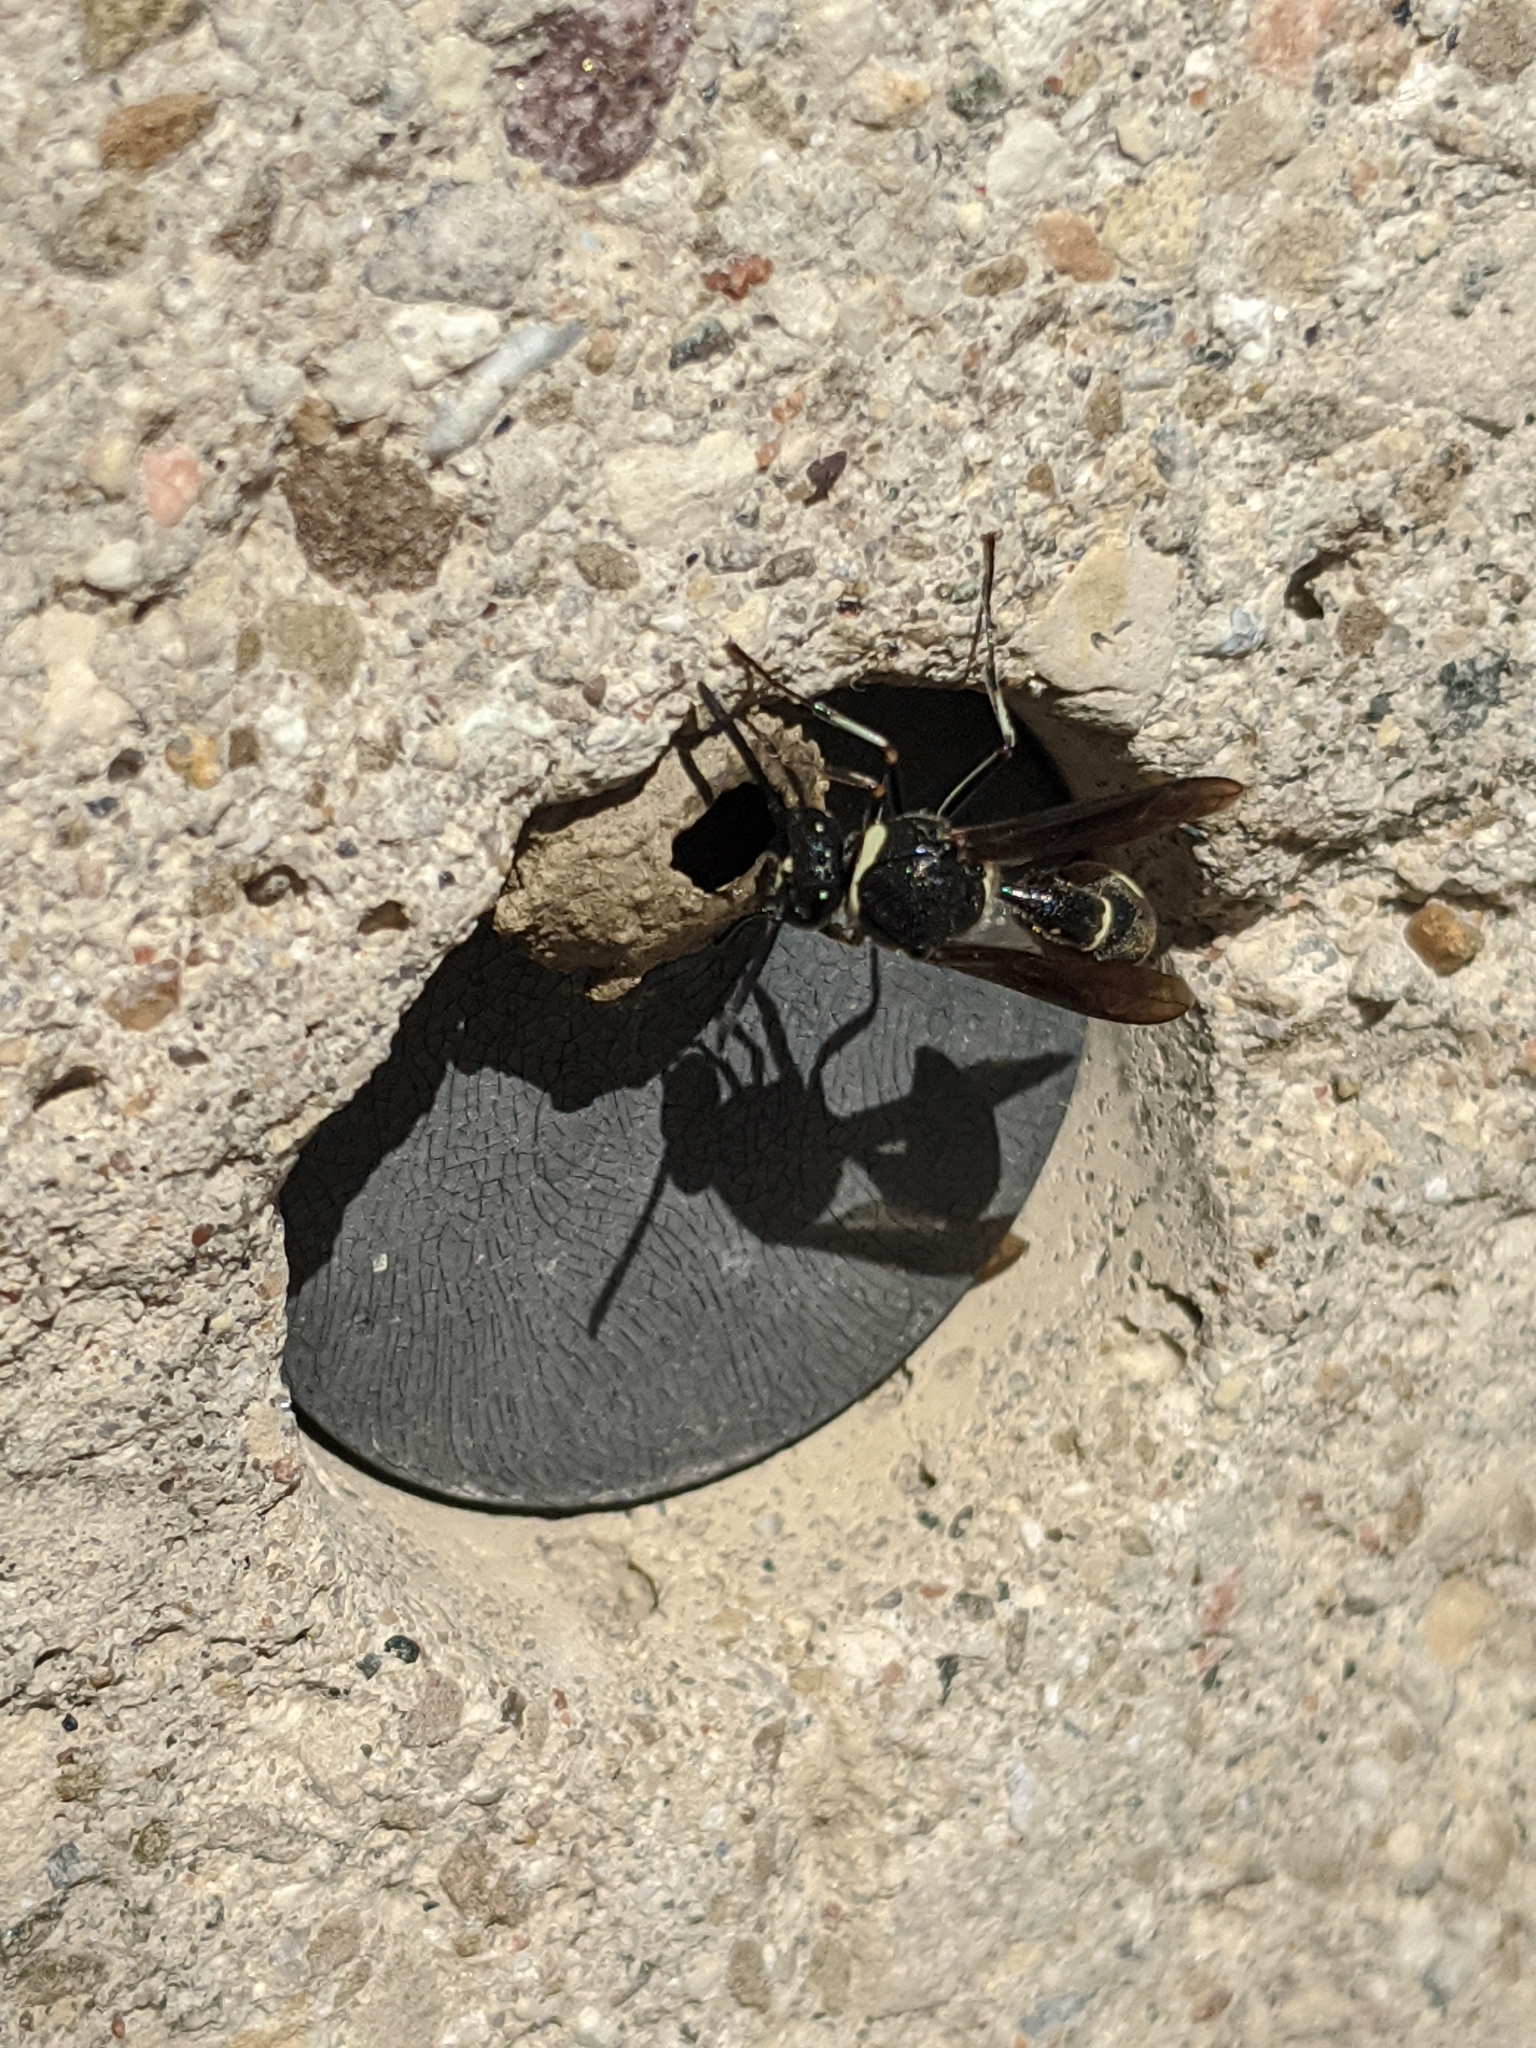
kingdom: Animalia
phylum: Arthropoda
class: Insecta
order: Hymenoptera
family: Vespidae
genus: Eumenes
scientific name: Eumenes fraternus
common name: Fraternal potter wasp
